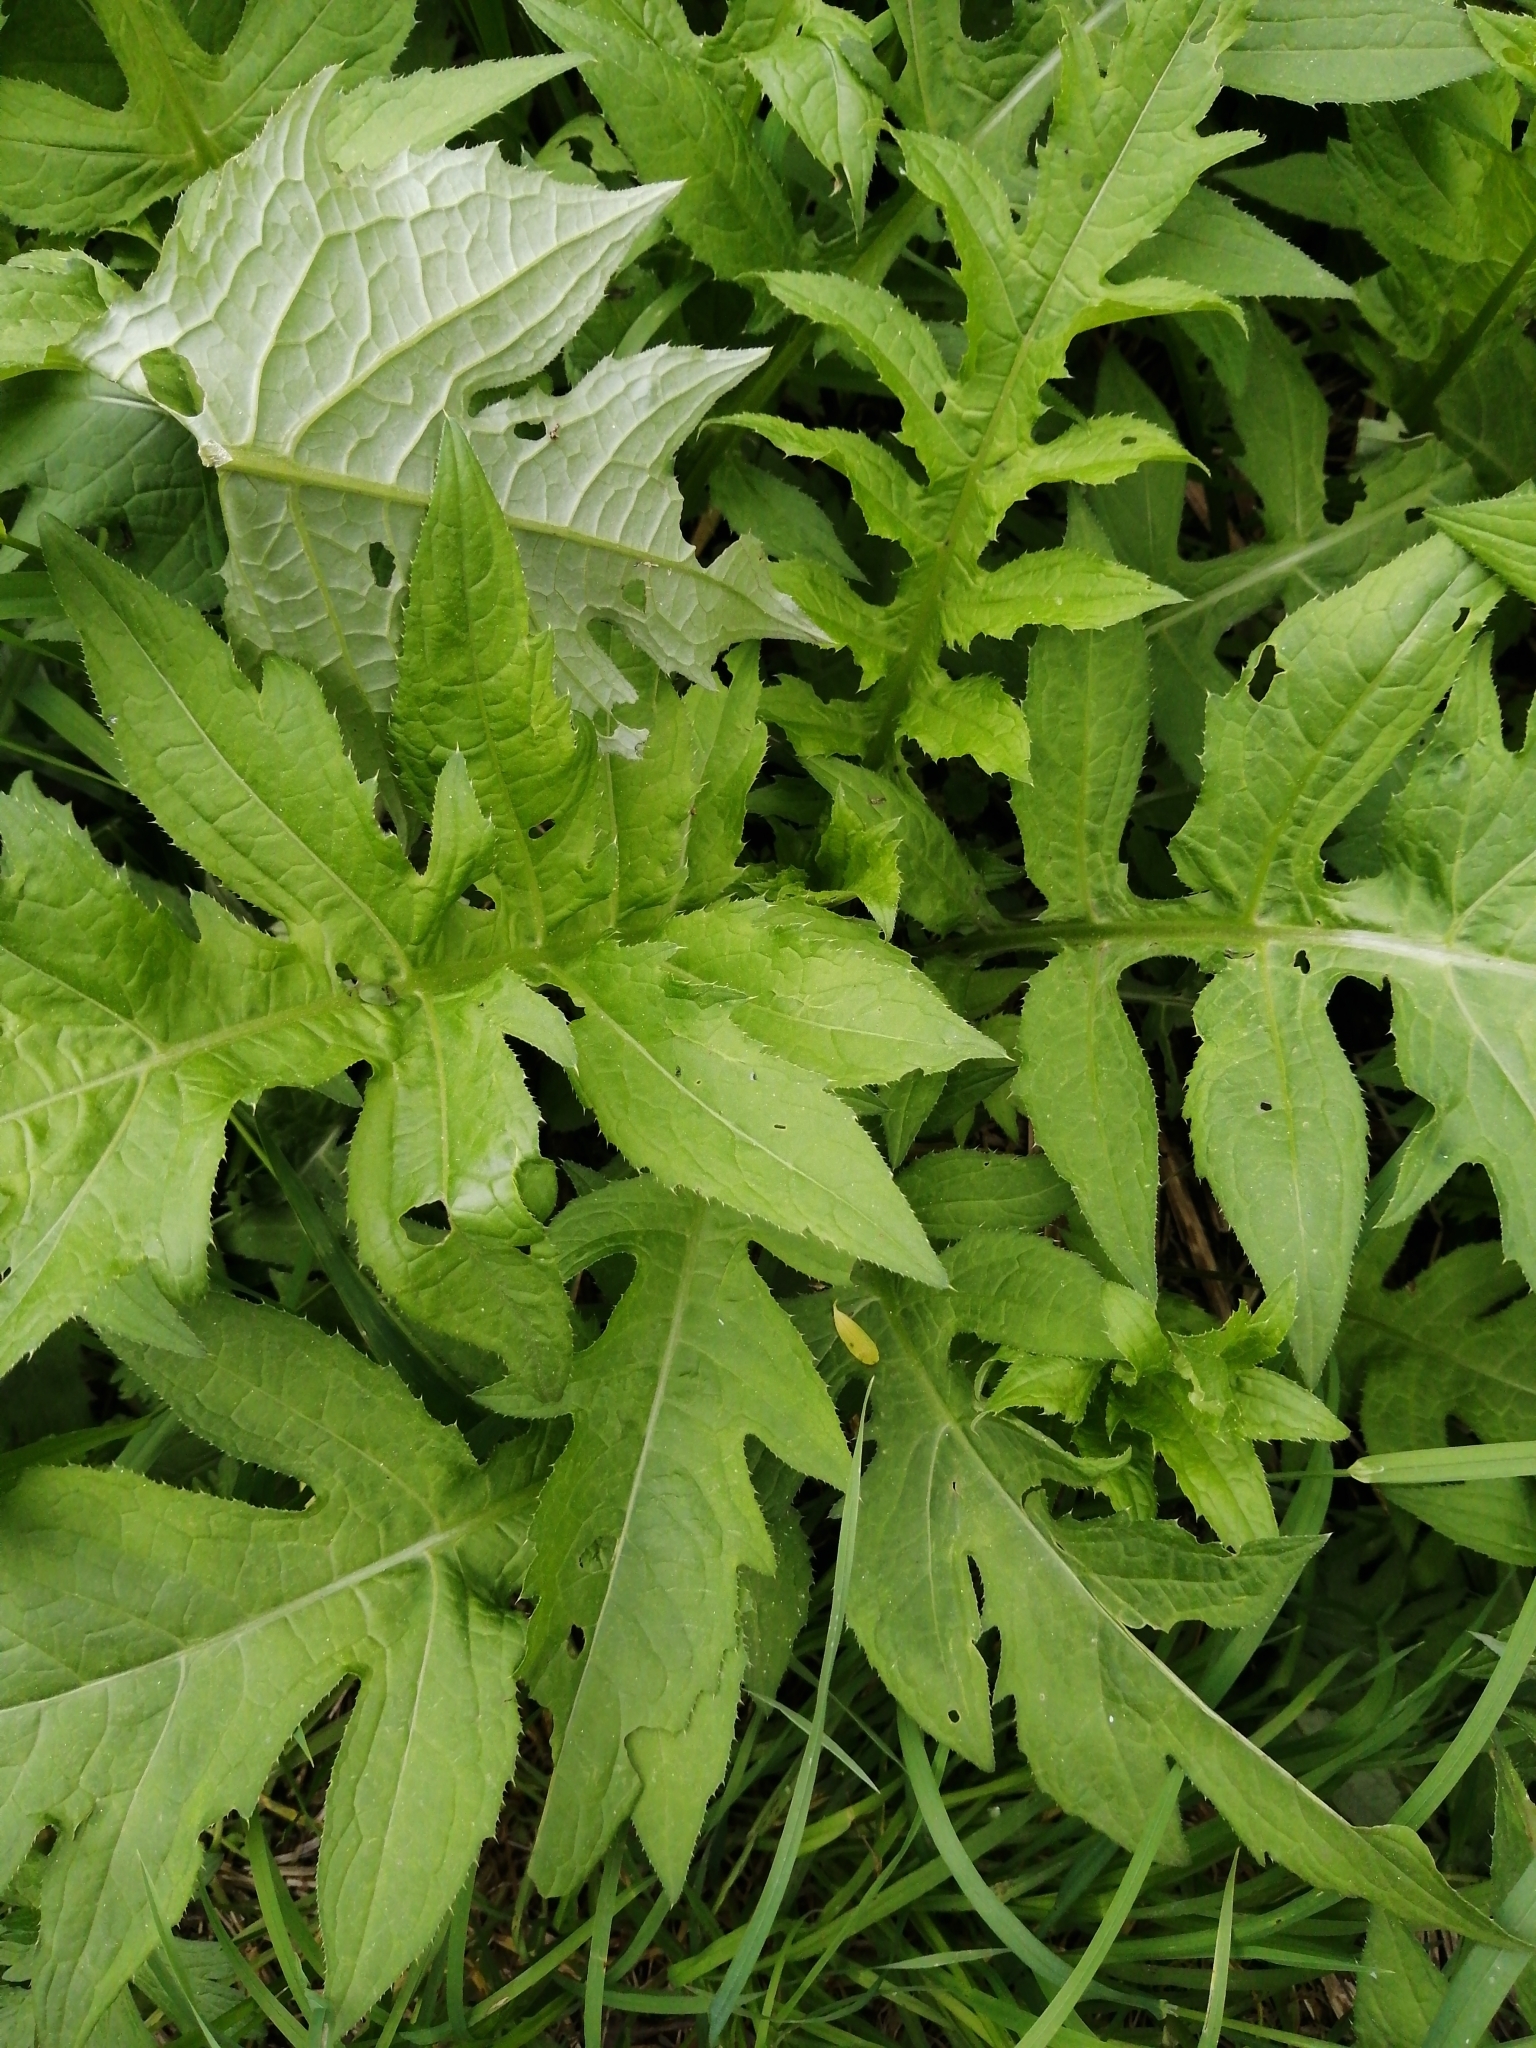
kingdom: Plantae
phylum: Tracheophyta
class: Magnoliopsida
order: Asterales
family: Asteraceae
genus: Cirsium
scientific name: Cirsium oleraceum
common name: Cabbage thistle
